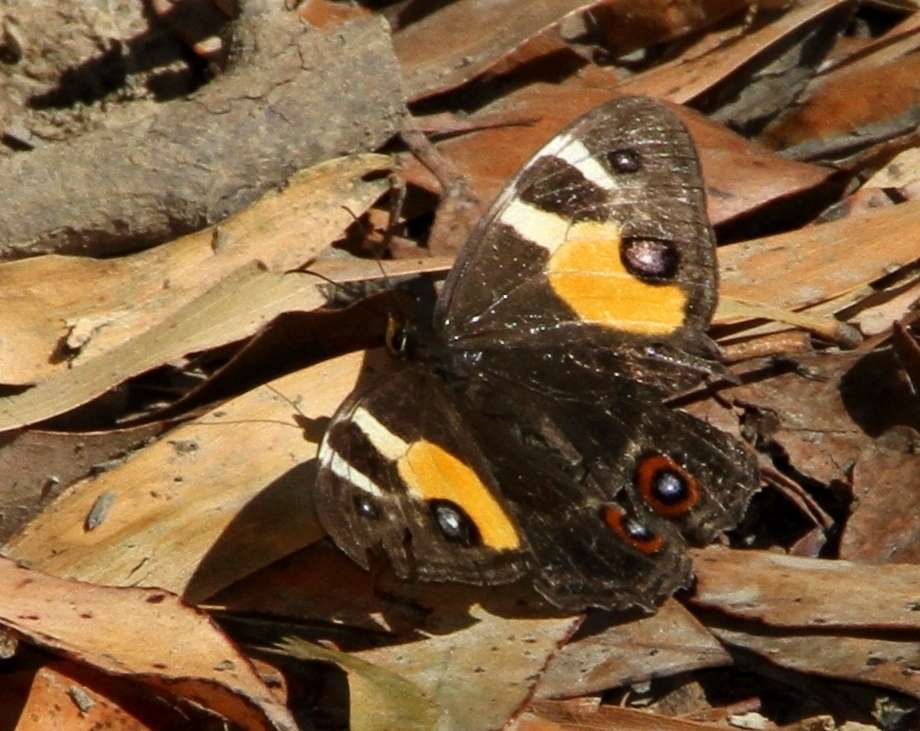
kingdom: Animalia
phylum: Arthropoda
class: Insecta
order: Lepidoptera
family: Nymphalidae
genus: Tisiphone
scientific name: Tisiphone abeona
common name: Swordgrass brown
